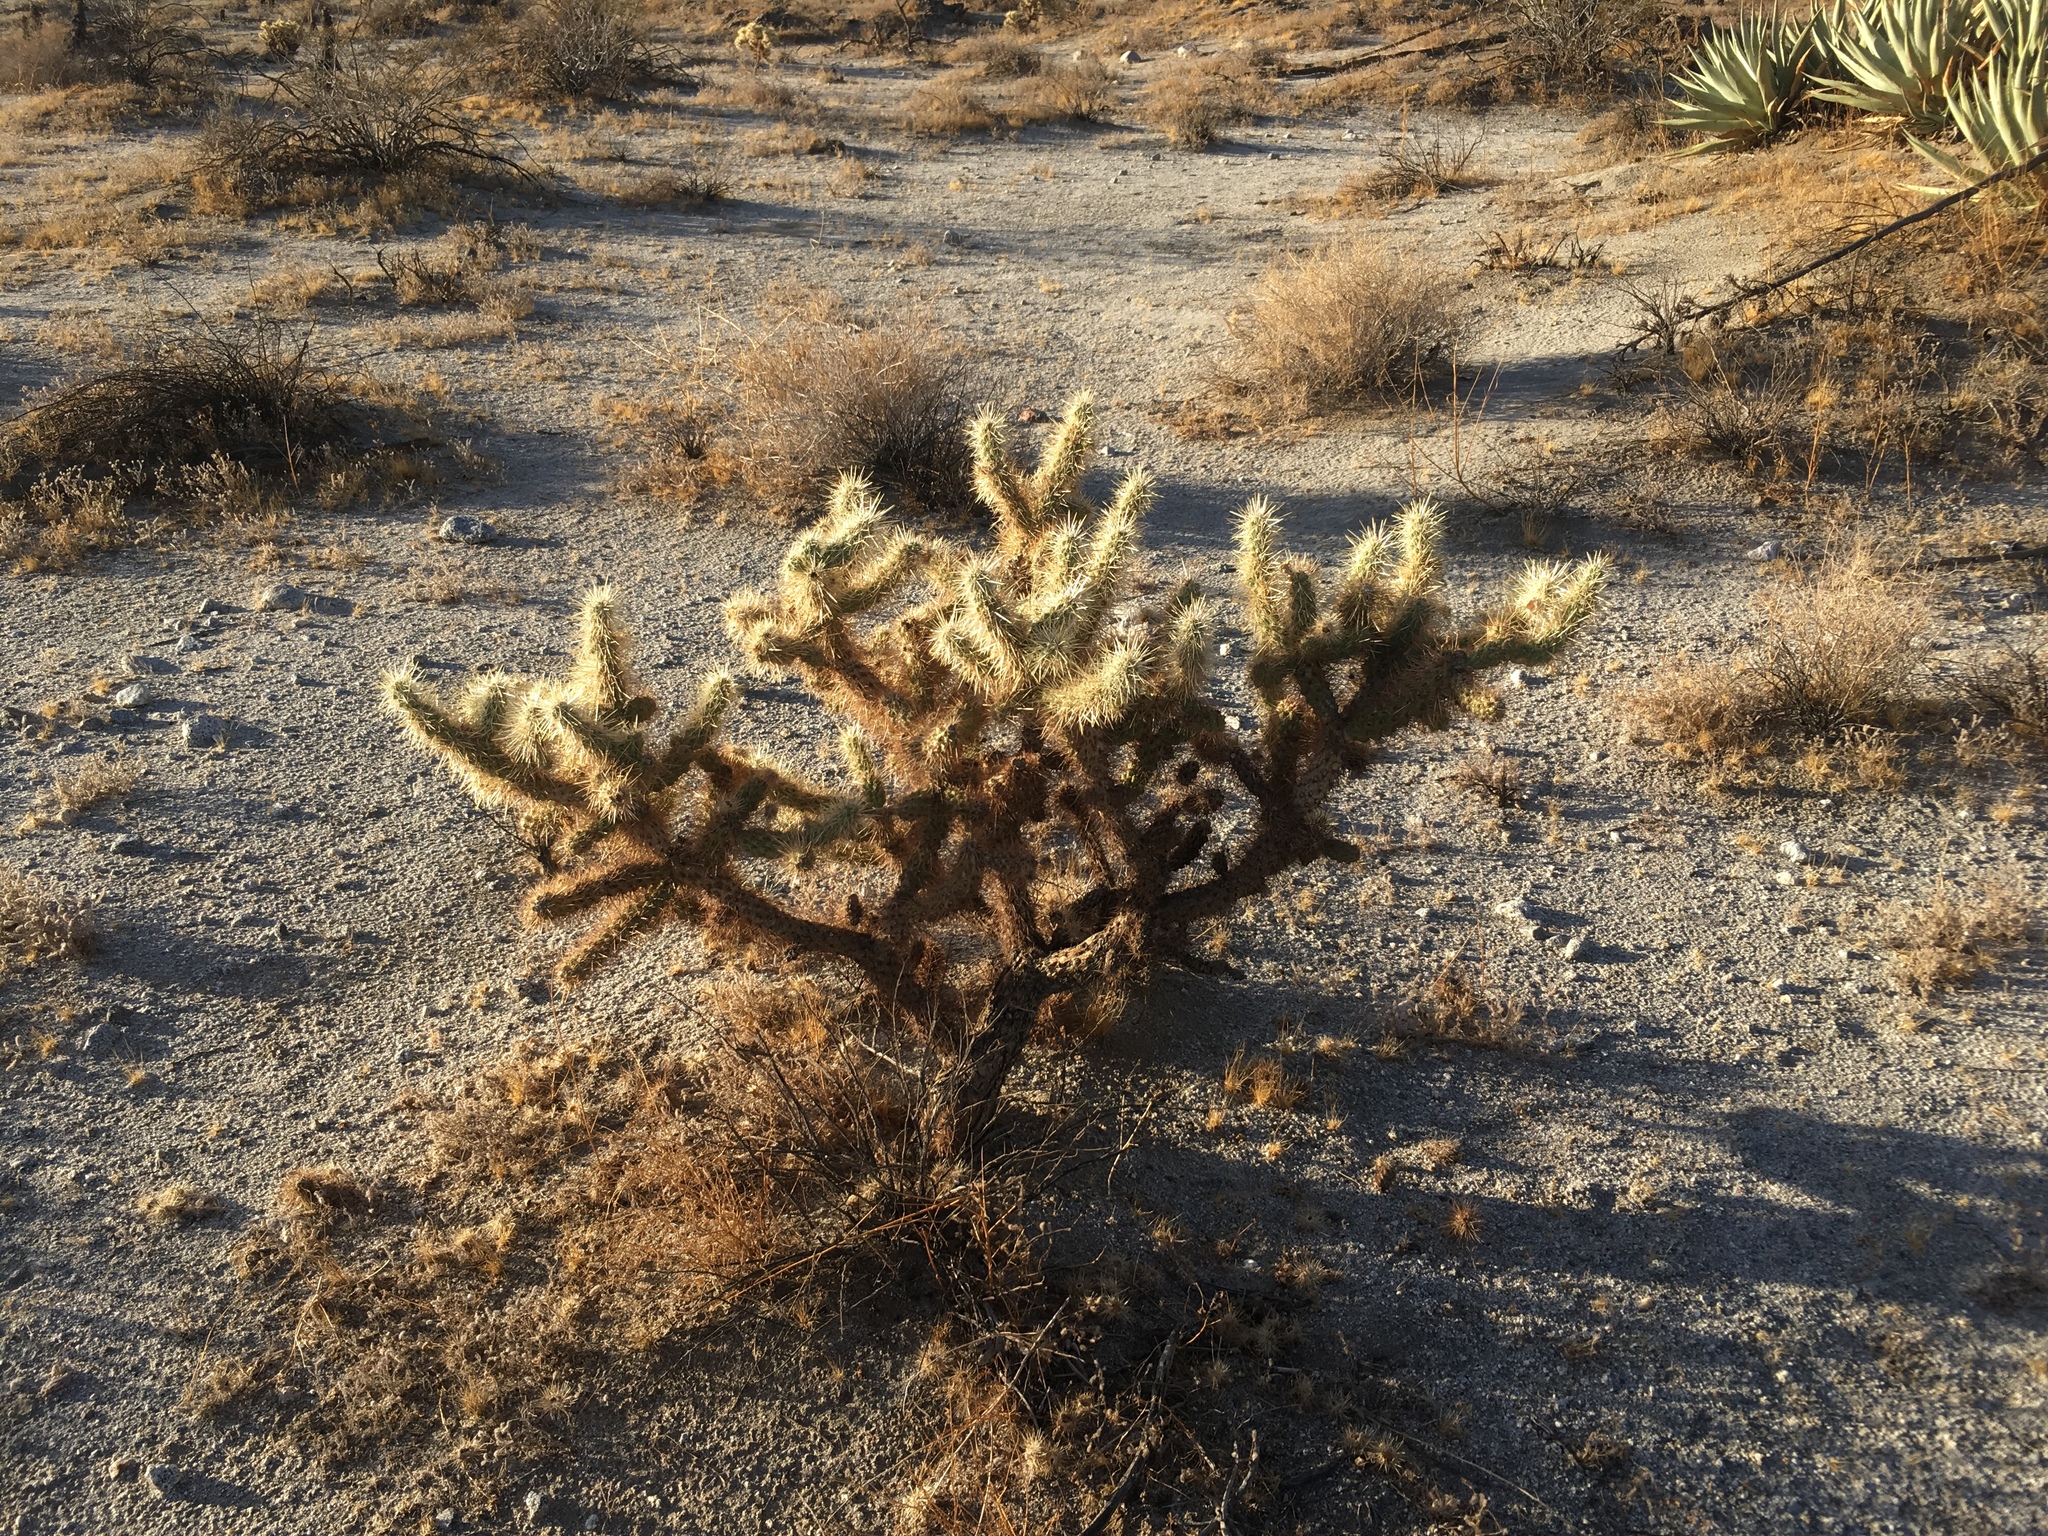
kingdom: Plantae
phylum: Tracheophyta
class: Magnoliopsida
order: Caryophyllales
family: Cactaceae
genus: Cylindropuntia
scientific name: Cylindropuntia echinocarpa
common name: Ground cholla
